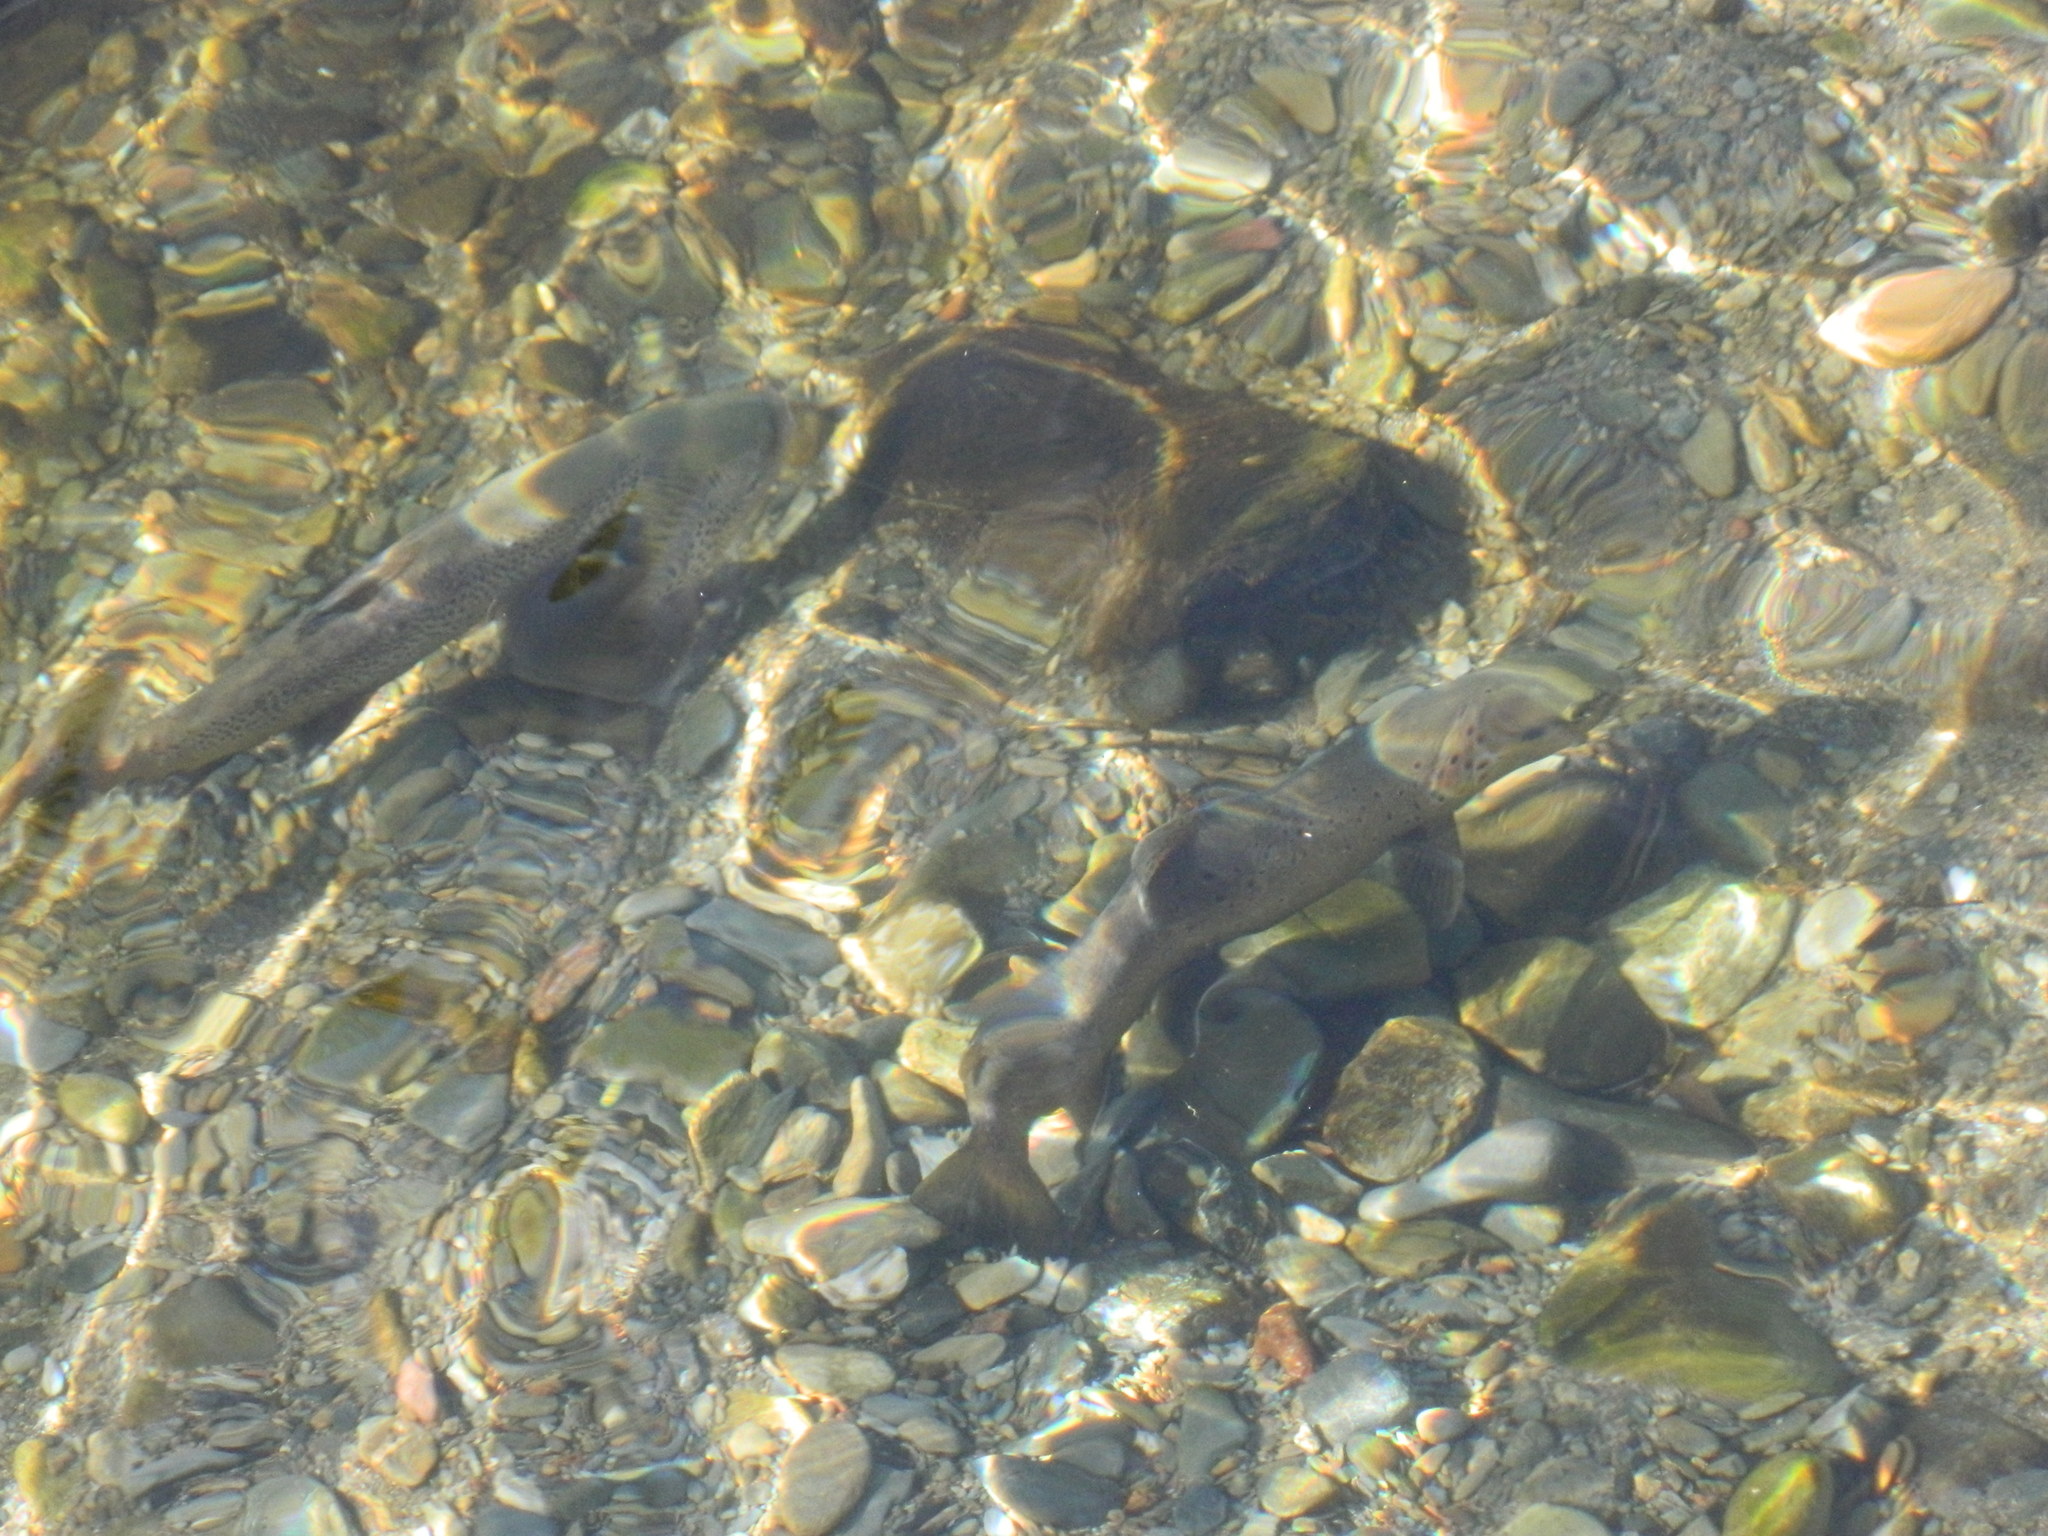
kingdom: Animalia
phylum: Chordata
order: Salmoniformes
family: Salmonidae
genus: Salmo
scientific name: Salmo trutta
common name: Brown trout
